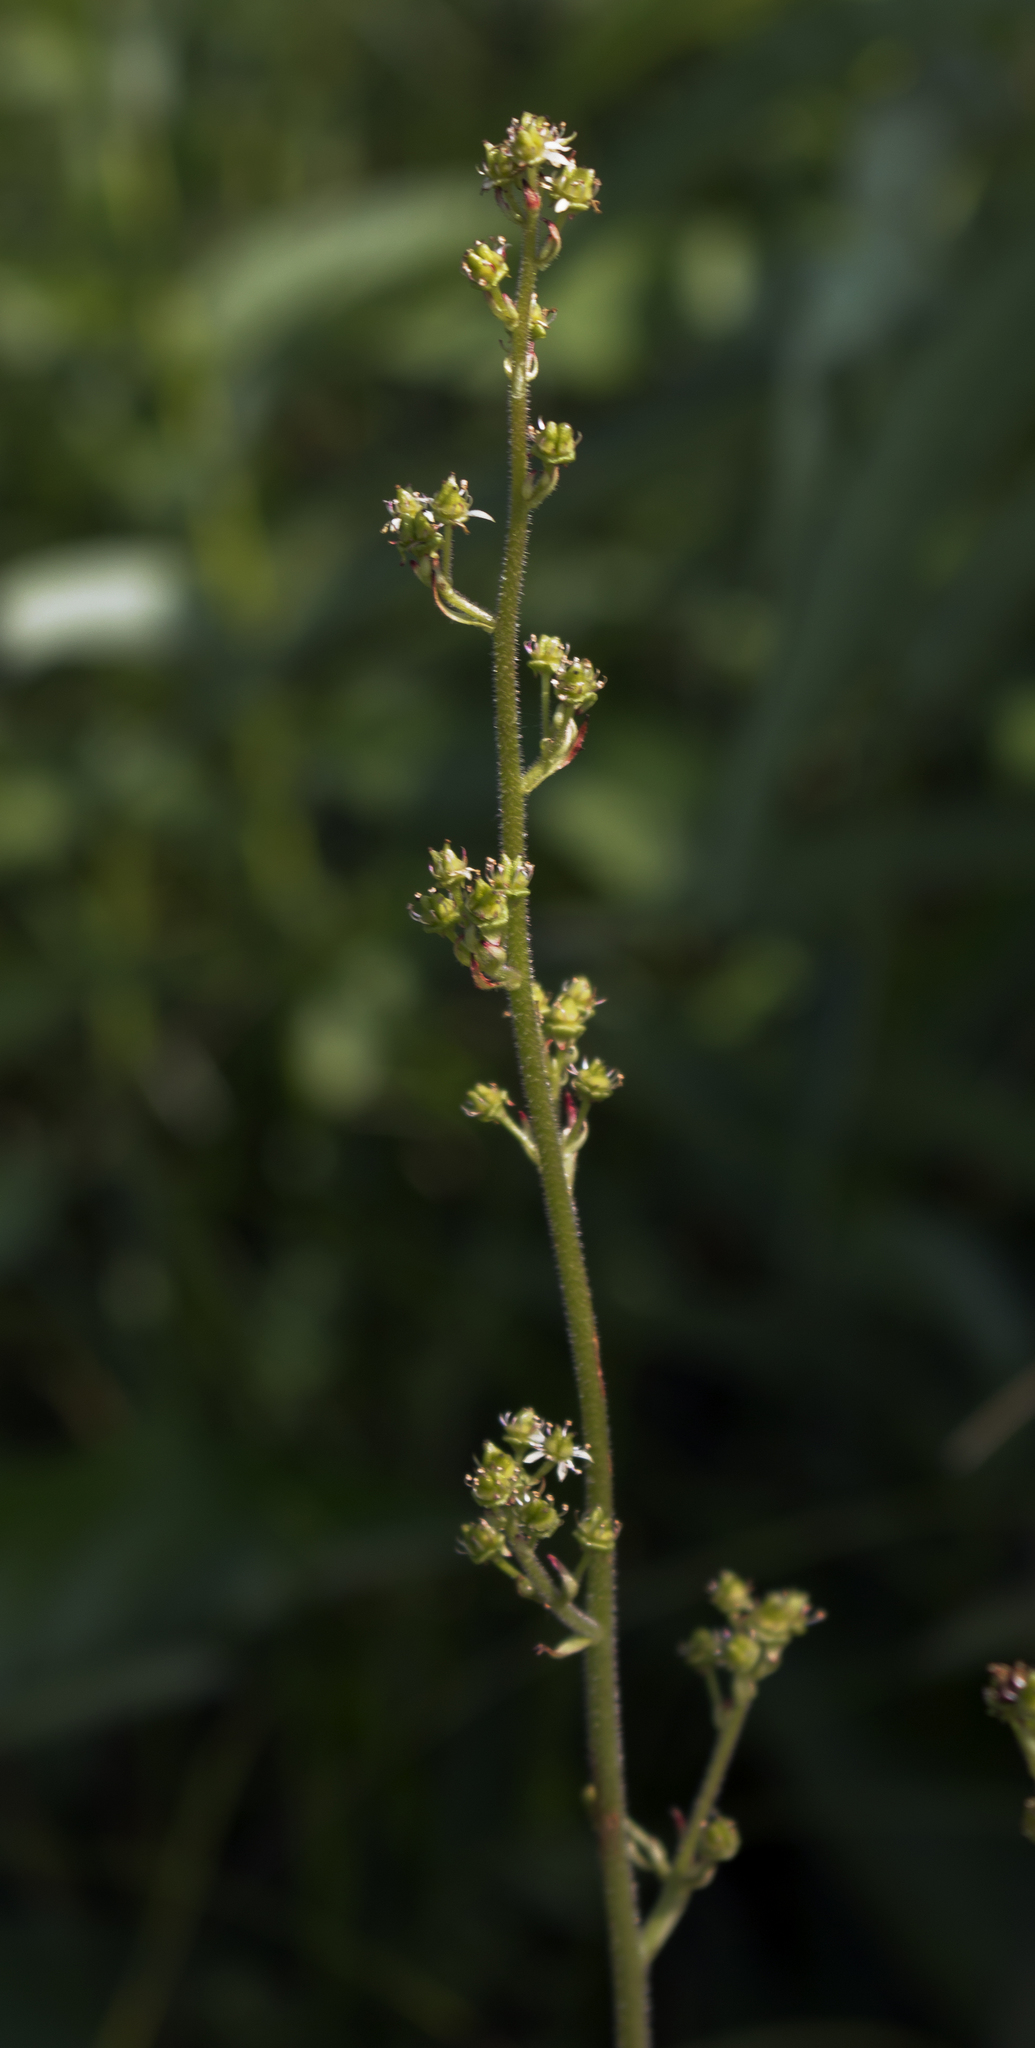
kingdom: Plantae
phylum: Tracheophyta
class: Magnoliopsida
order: Saxifragales
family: Saxifragaceae
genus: Micranthes
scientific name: Micranthes pensylvanica
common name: Marsh saxifrage
